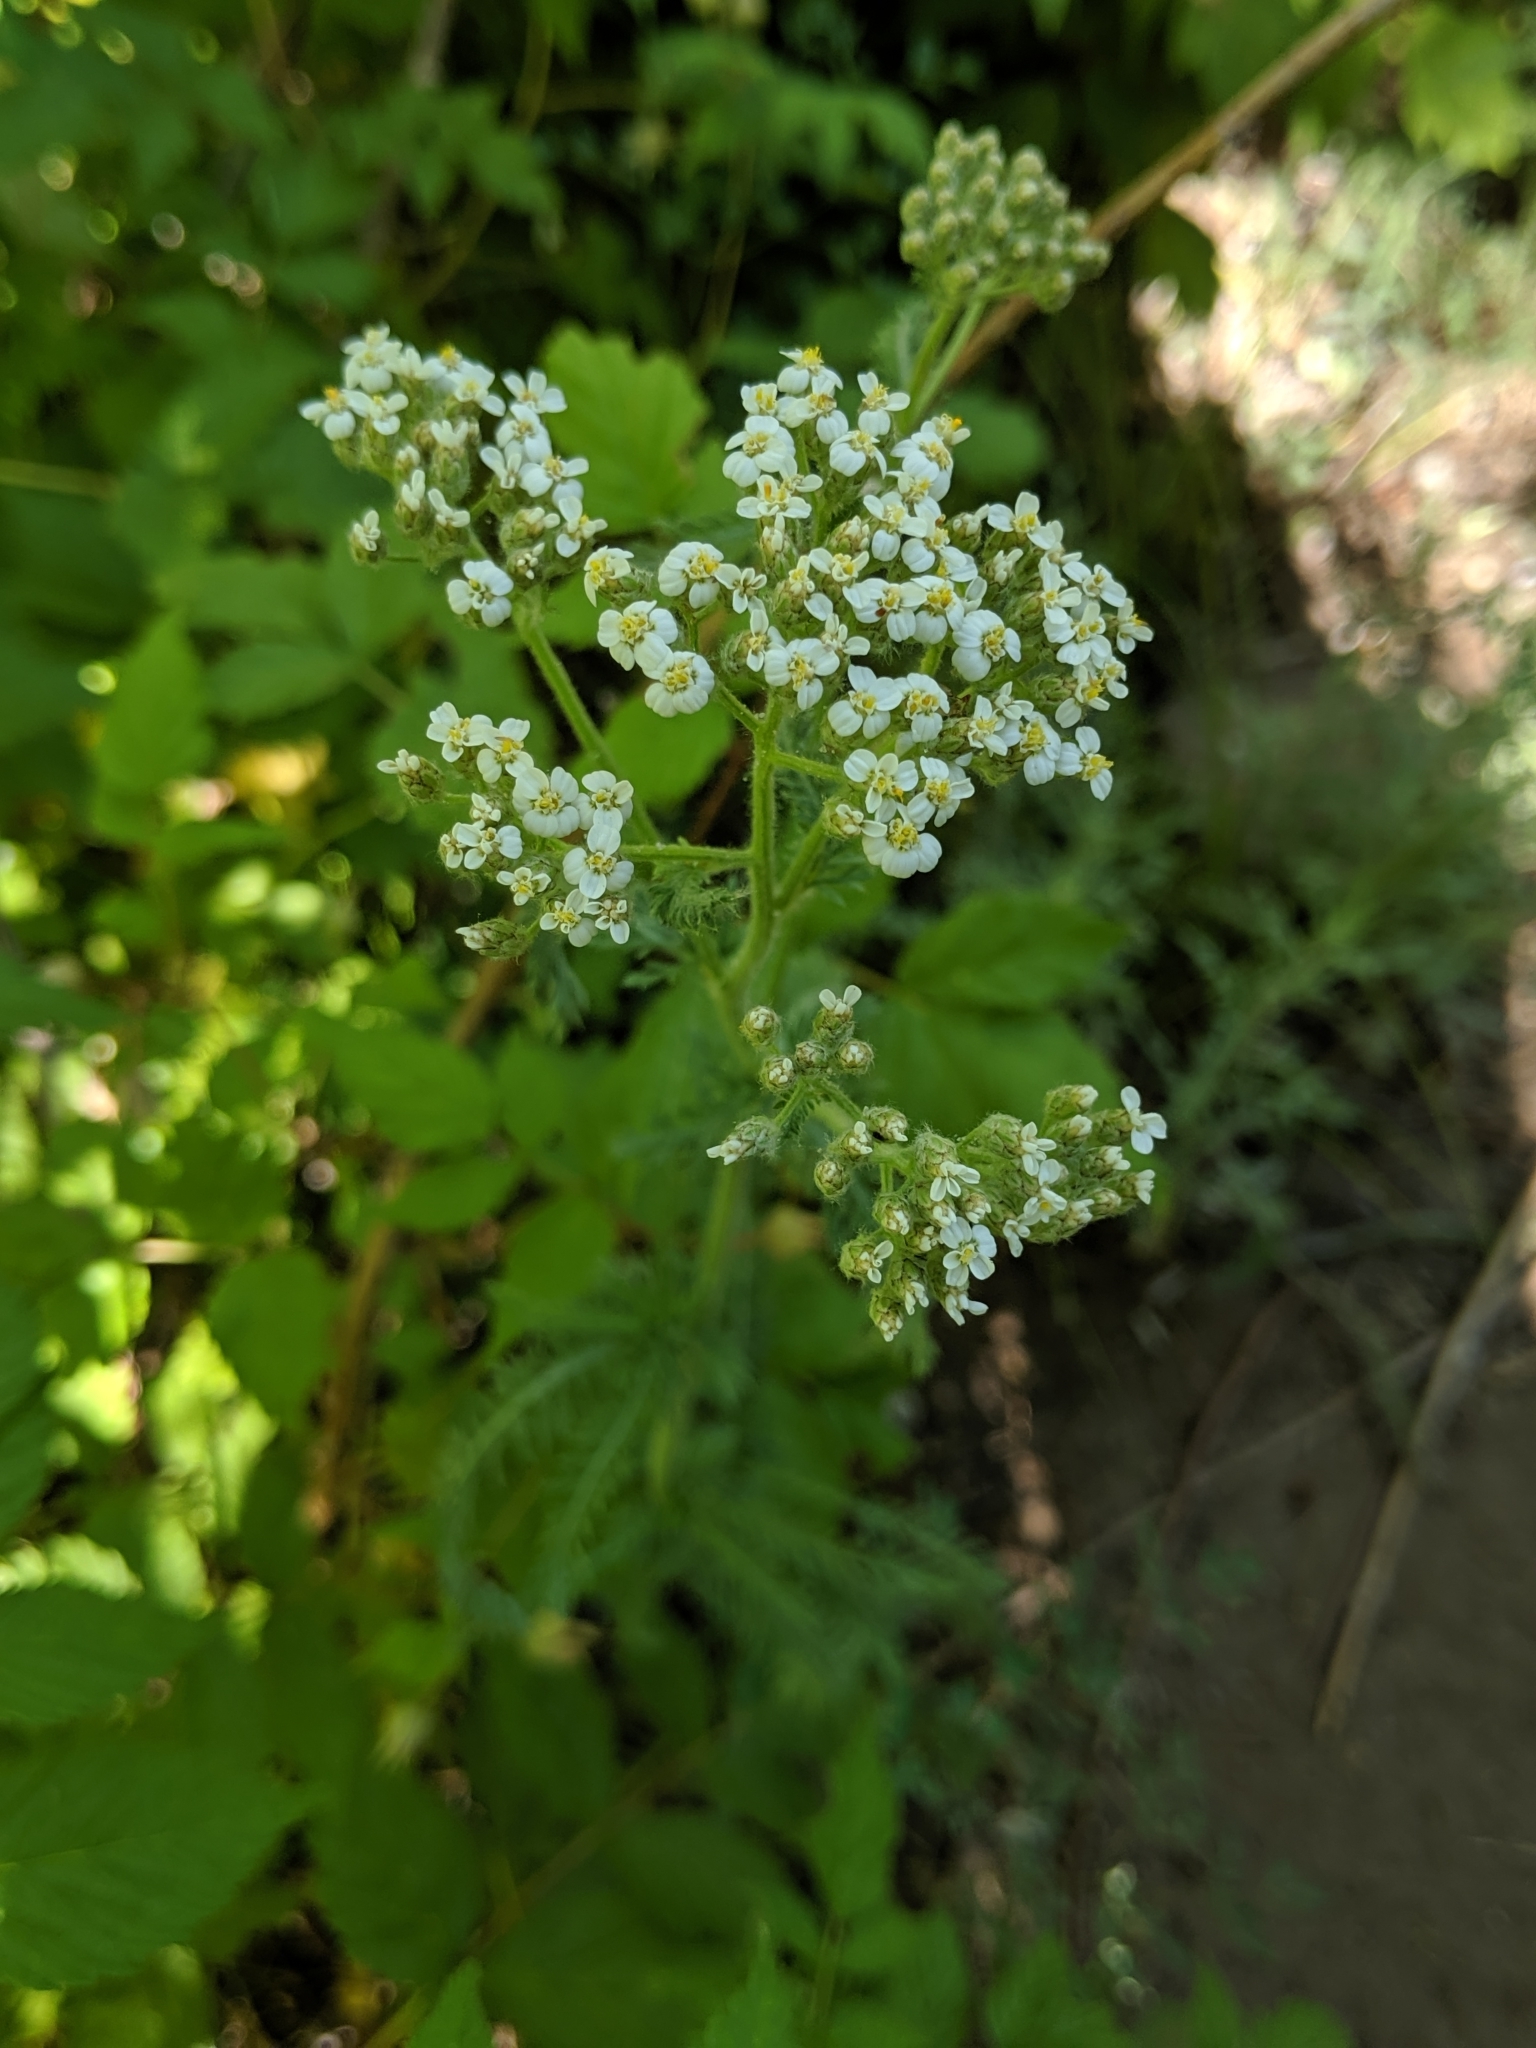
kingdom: Plantae
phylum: Tracheophyta
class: Magnoliopsida
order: Asterales
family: Asteraceae
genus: Achillea
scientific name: Achillea millefolium
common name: Yarrow
